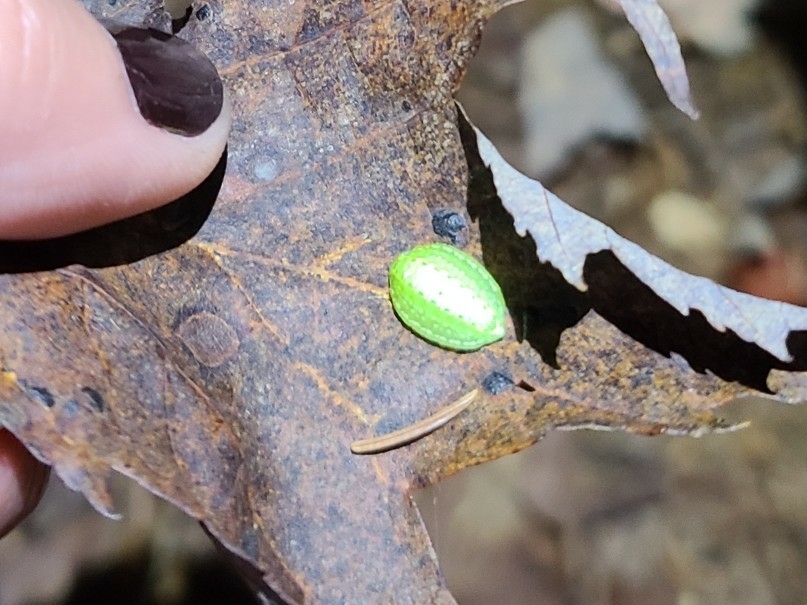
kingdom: Animalia
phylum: Arthropoda
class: Insecta
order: Lepidoptera
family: Limacodidae
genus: Lithacodes
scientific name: Lithacodes fasciola
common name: Yellow-shouldered slug moth
